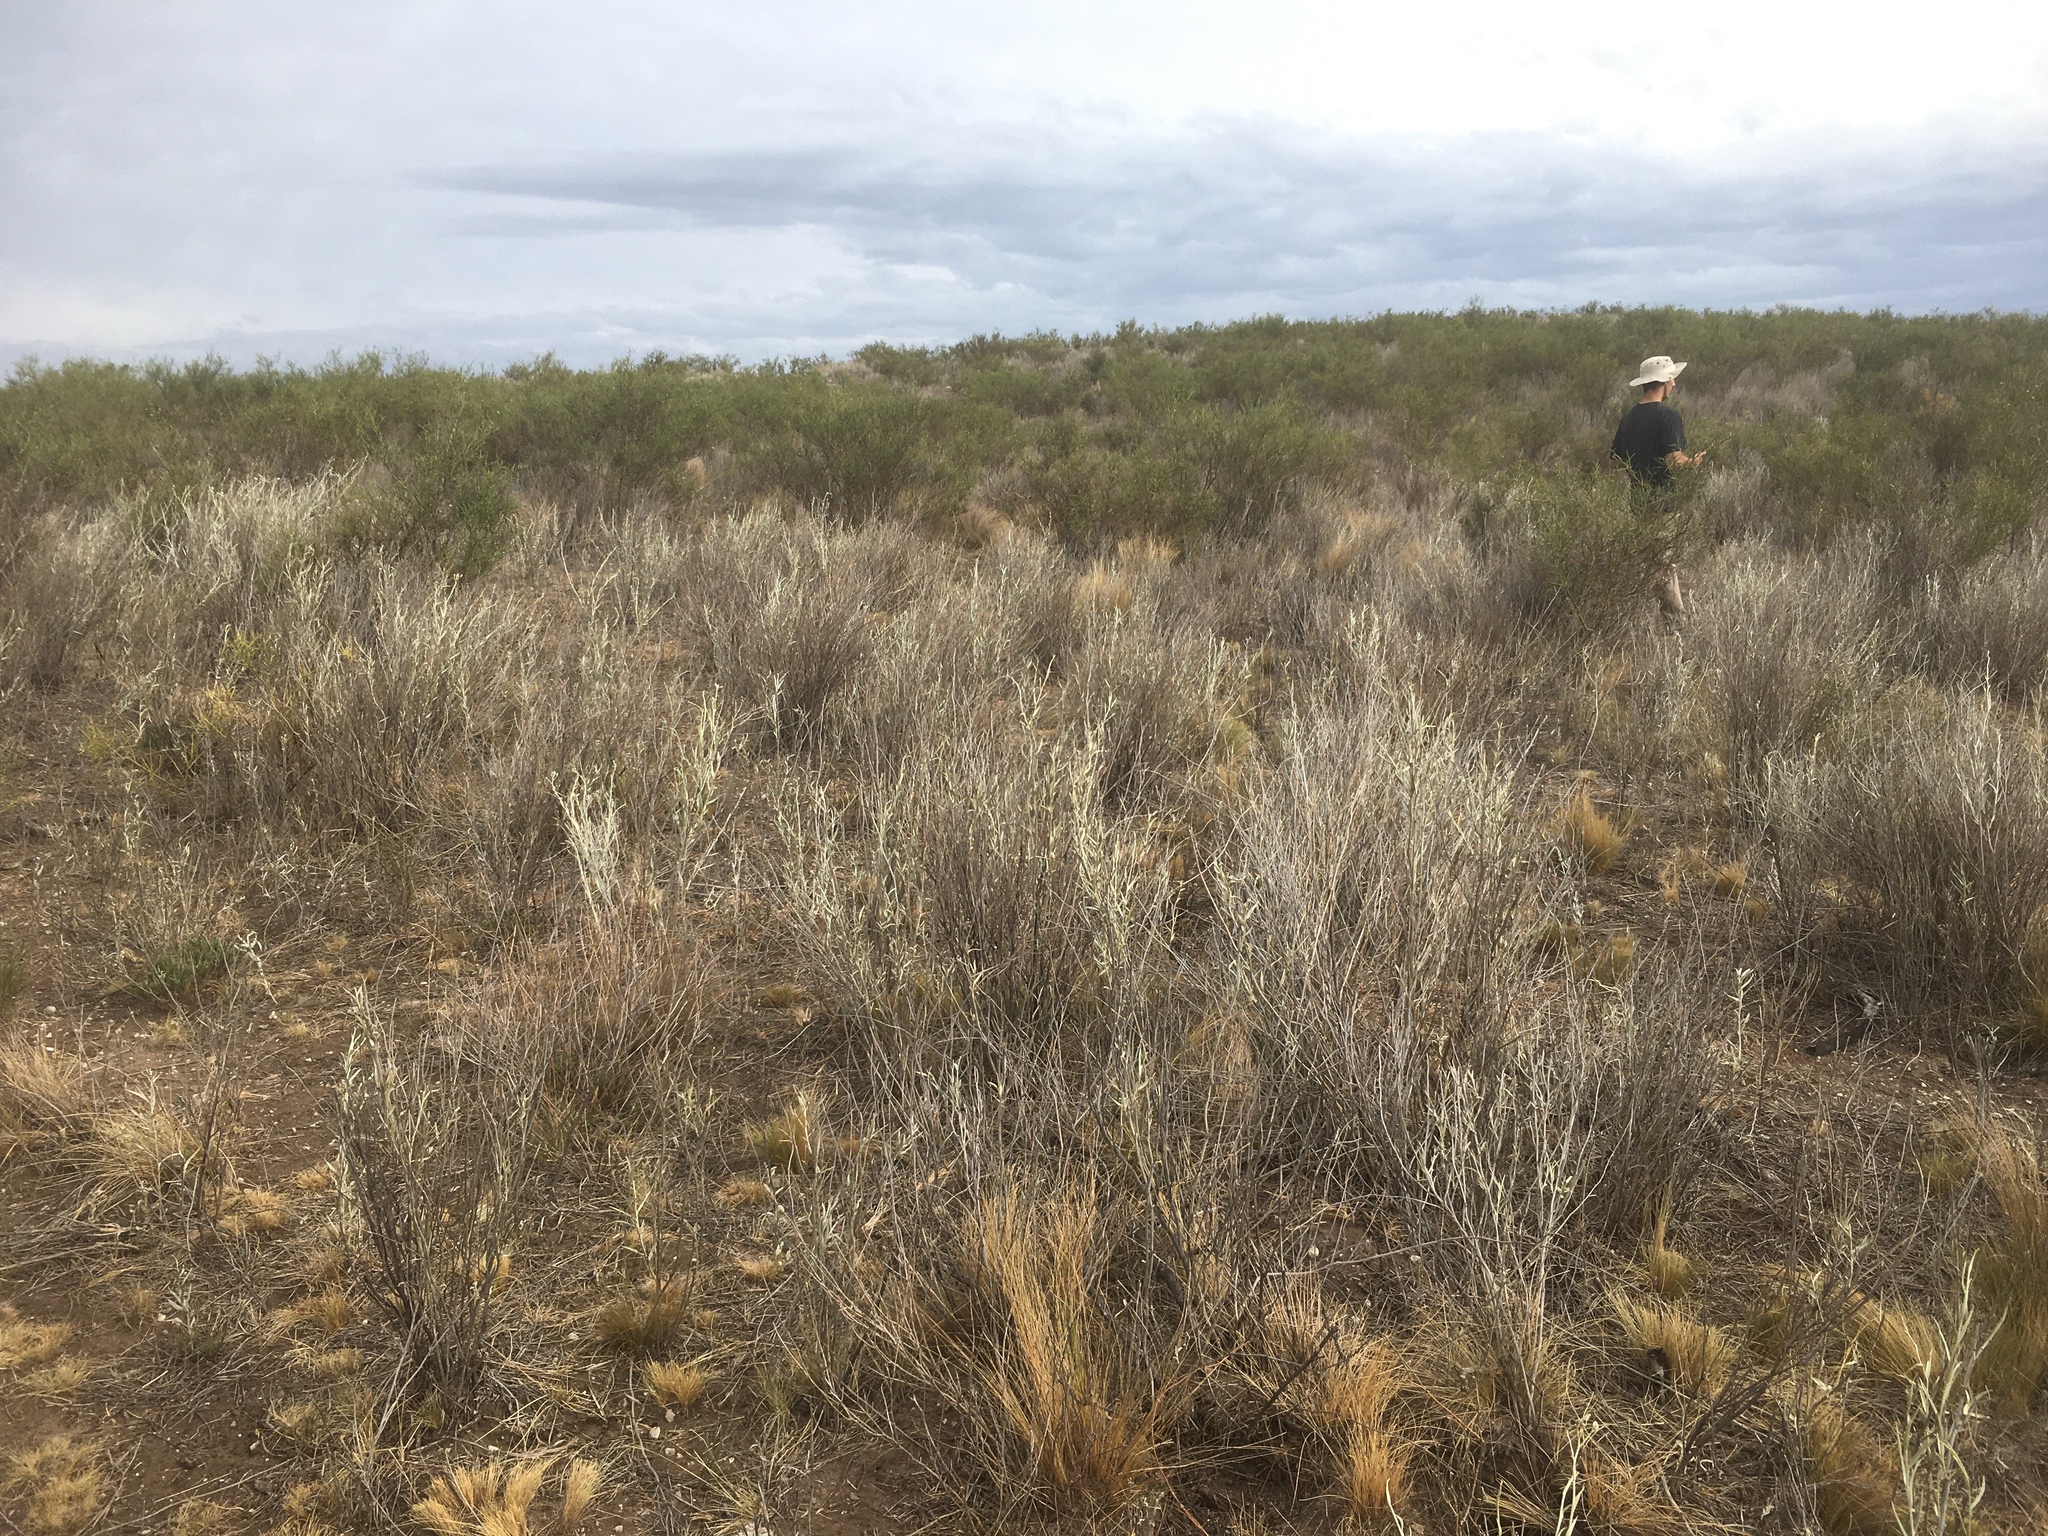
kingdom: Plantae
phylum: Tracheophyta
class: Magnoliopsida
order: Asterales
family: Asteraceae
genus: Hyalis
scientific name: Hyalis argentea
